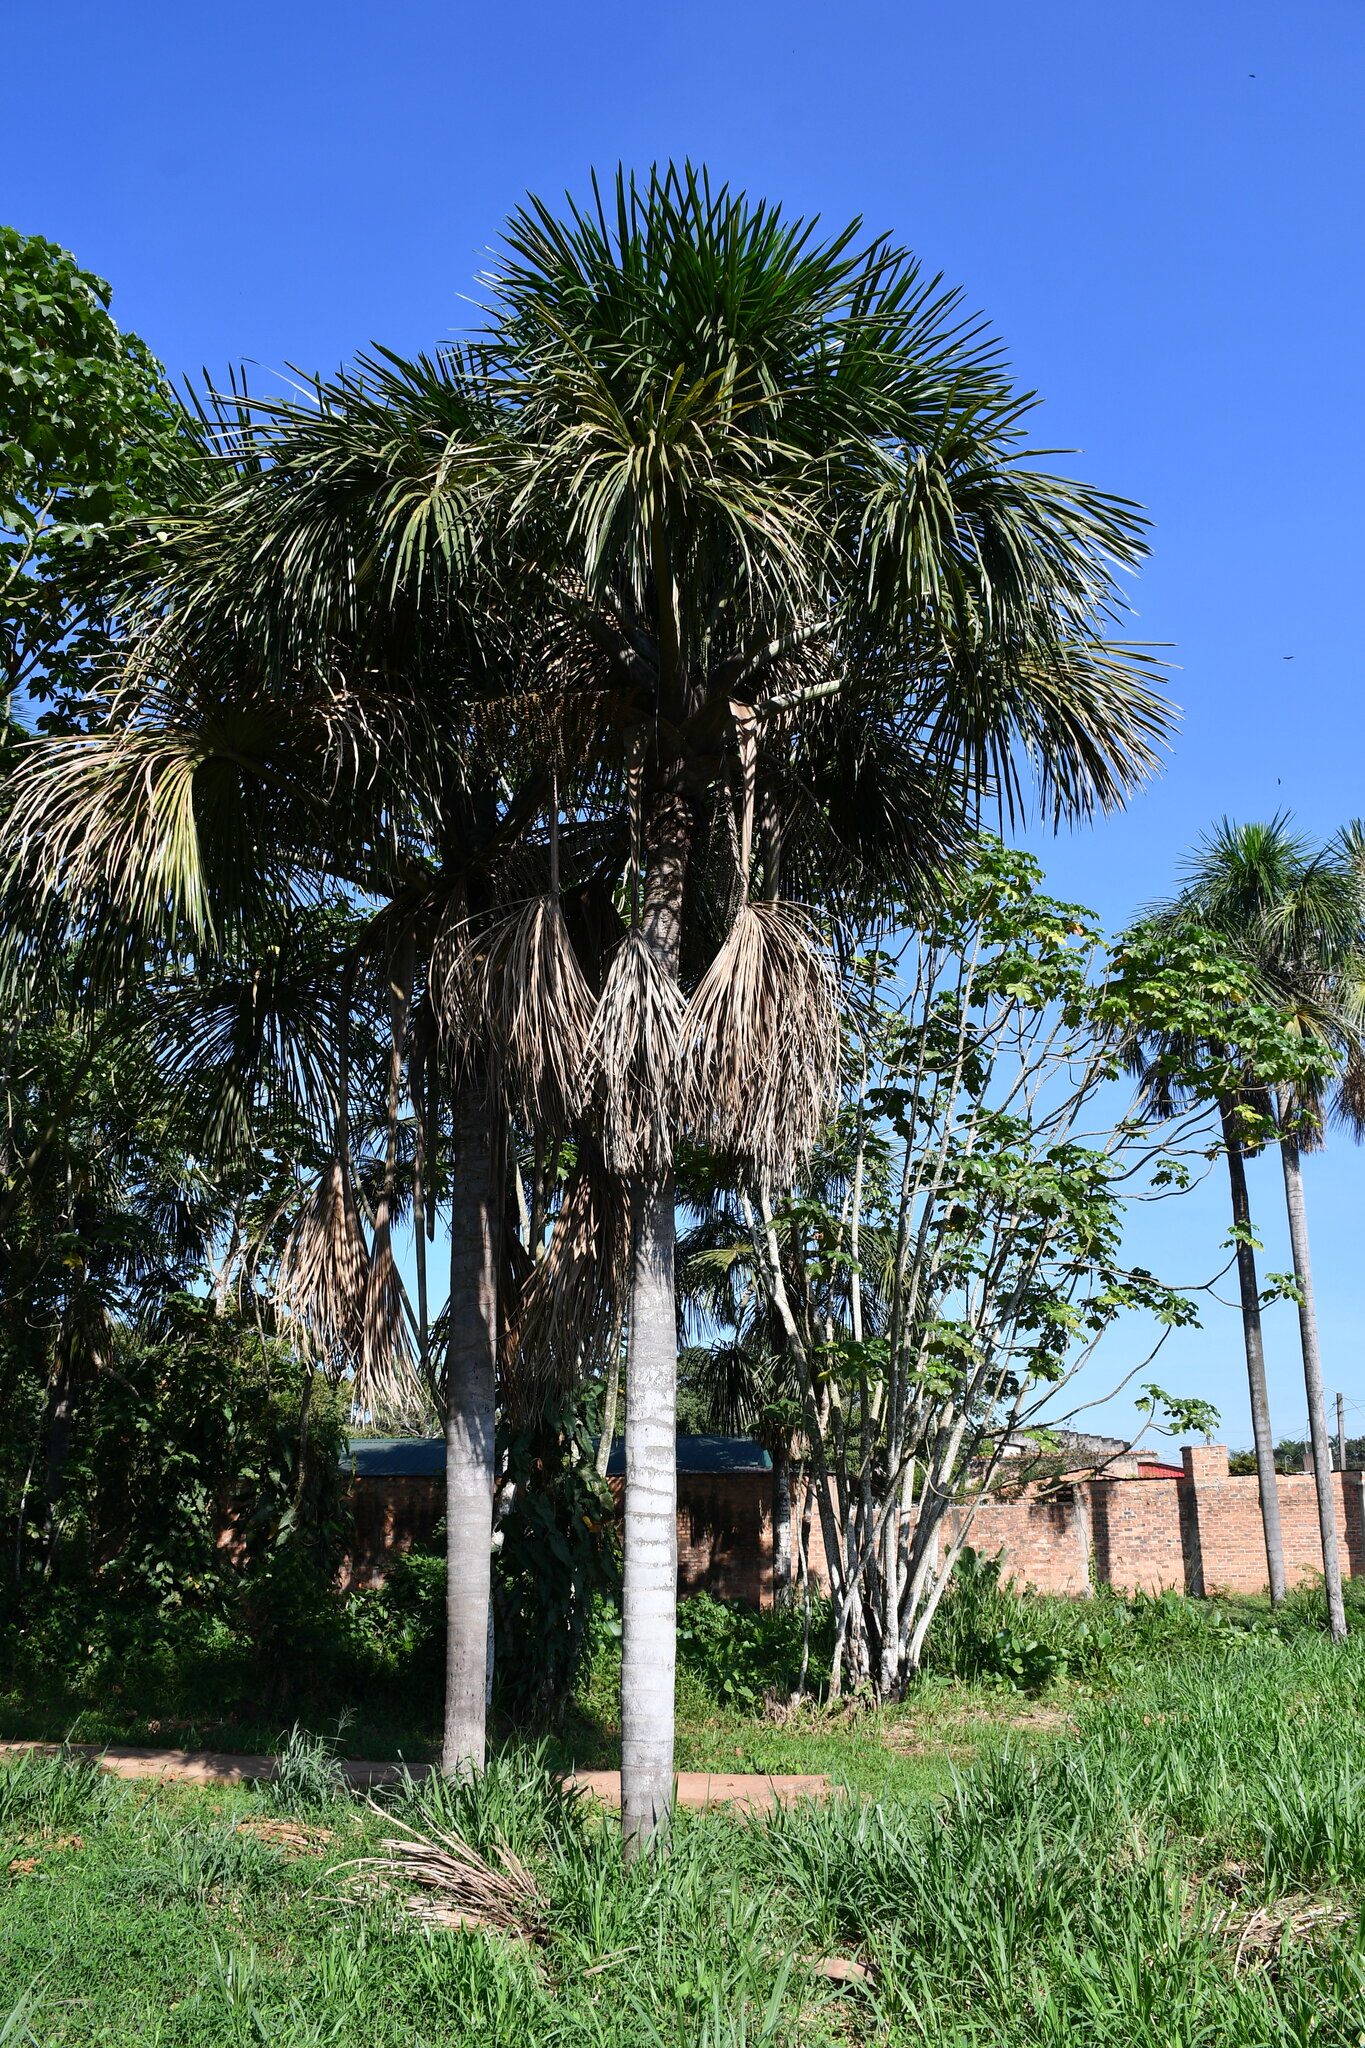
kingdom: Plantae
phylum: Tracheophyta
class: Liliopsida
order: Arecales
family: Arecaceae
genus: Mauritia
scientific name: Mauritia flexuosa
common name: Tree-of-life
